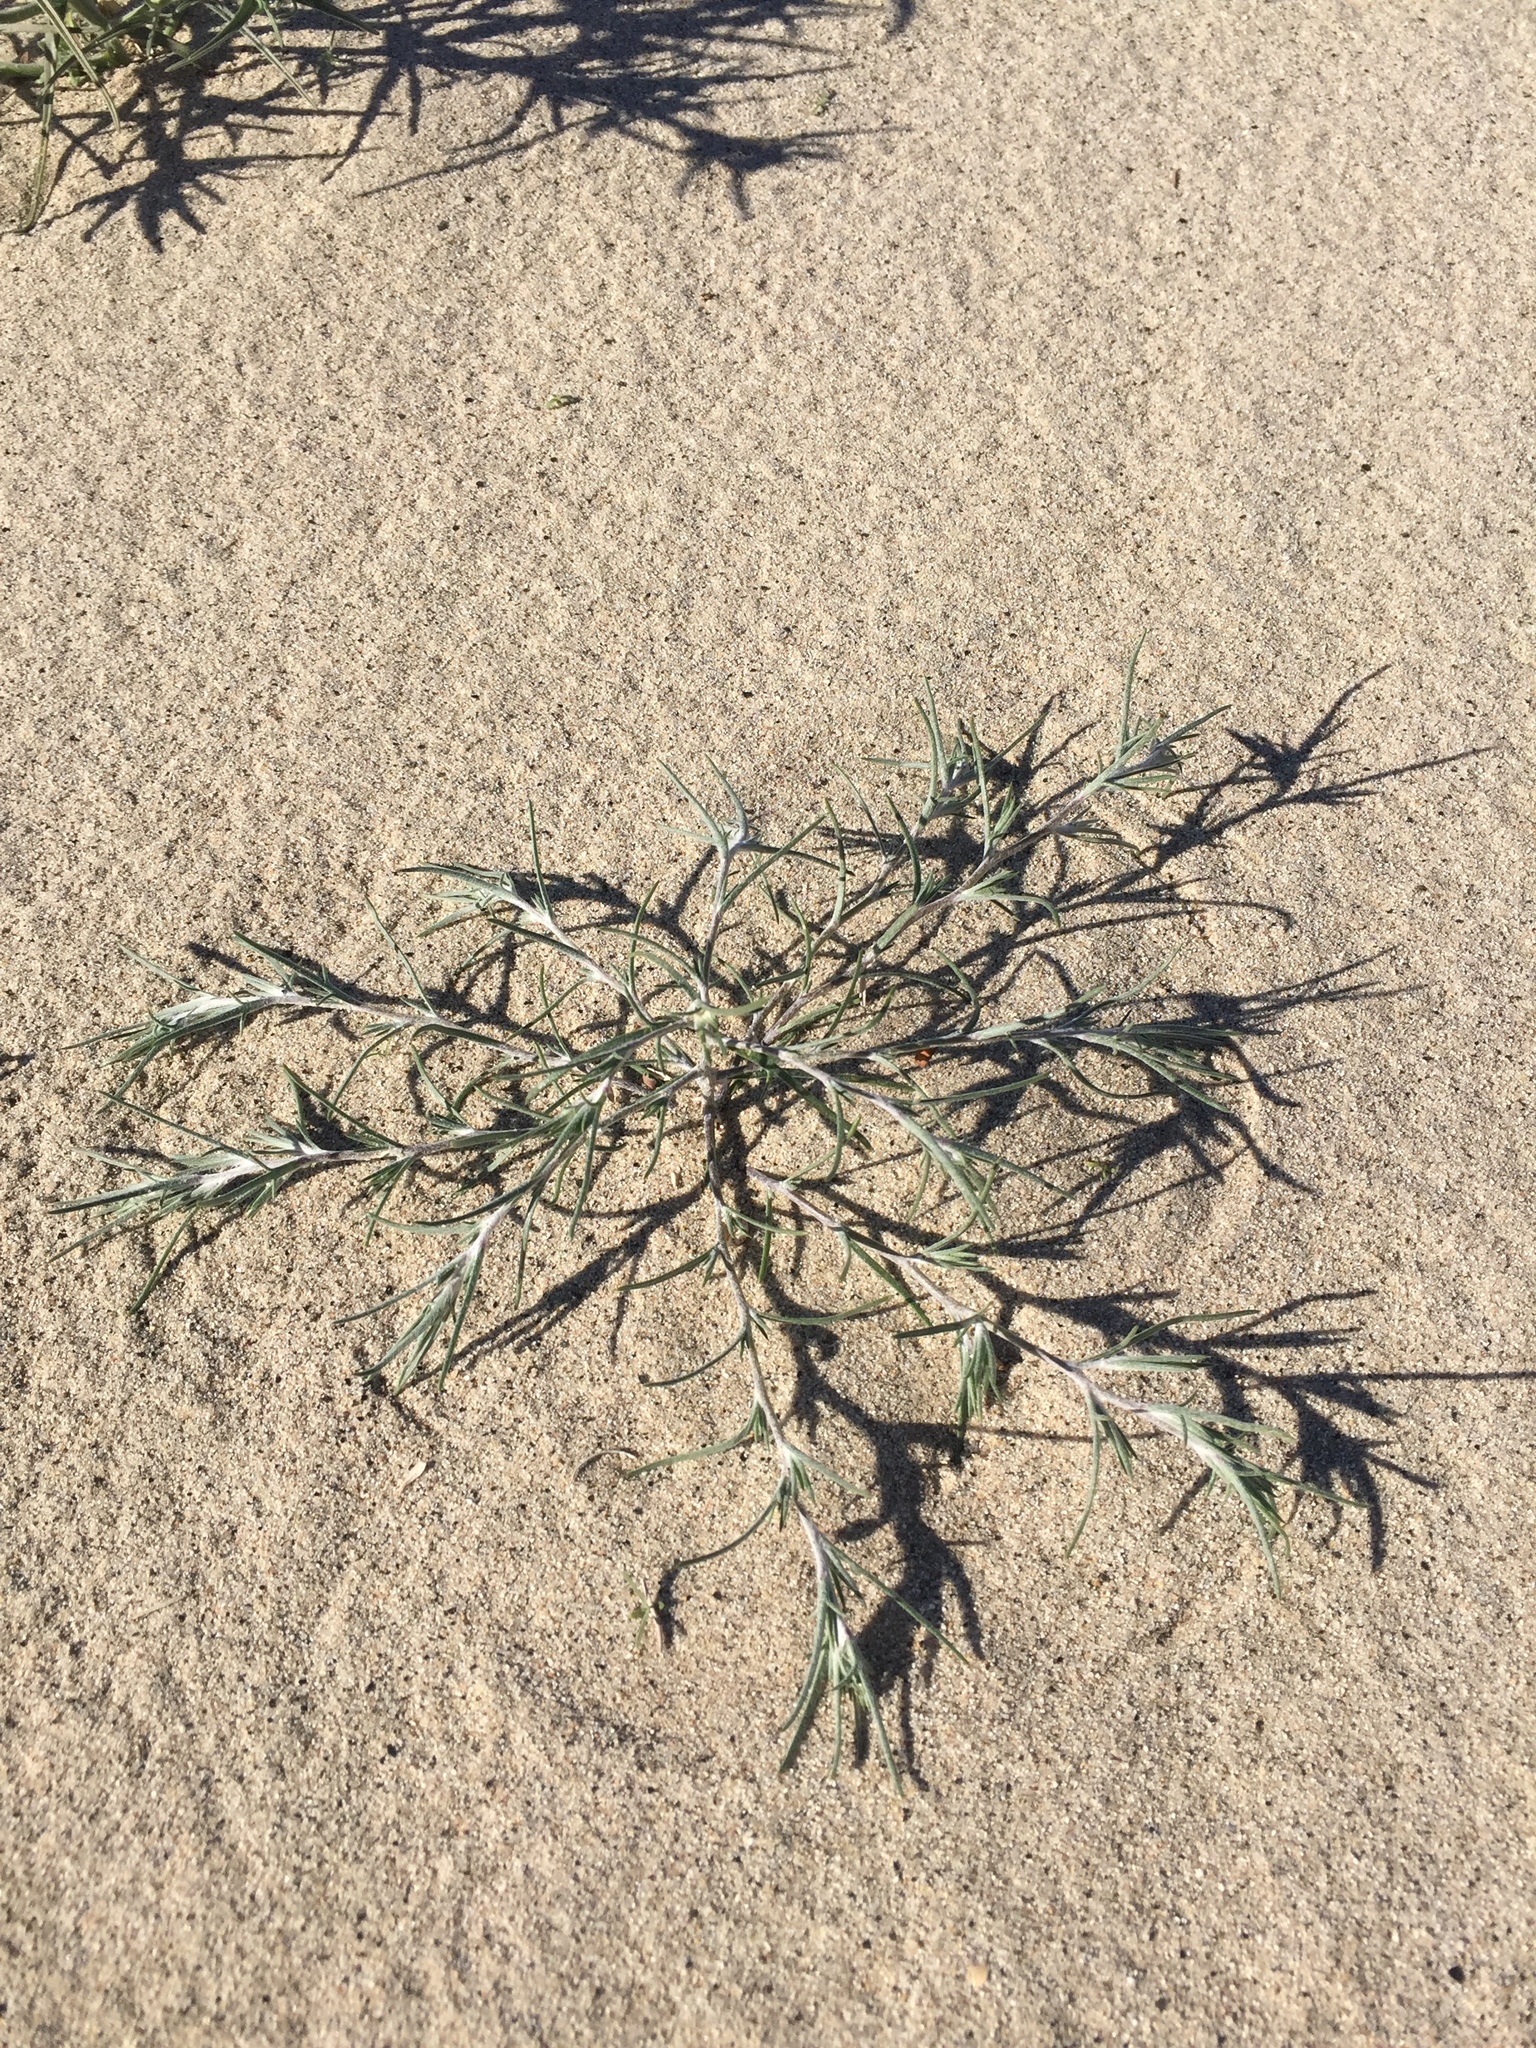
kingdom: Plantae
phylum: Tracheophyta
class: Magnoliopsida
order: Ericales
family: Polemoniaceae
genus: Eriastrum
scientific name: Eriastrum harwoodii
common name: Harwood's woollystar
